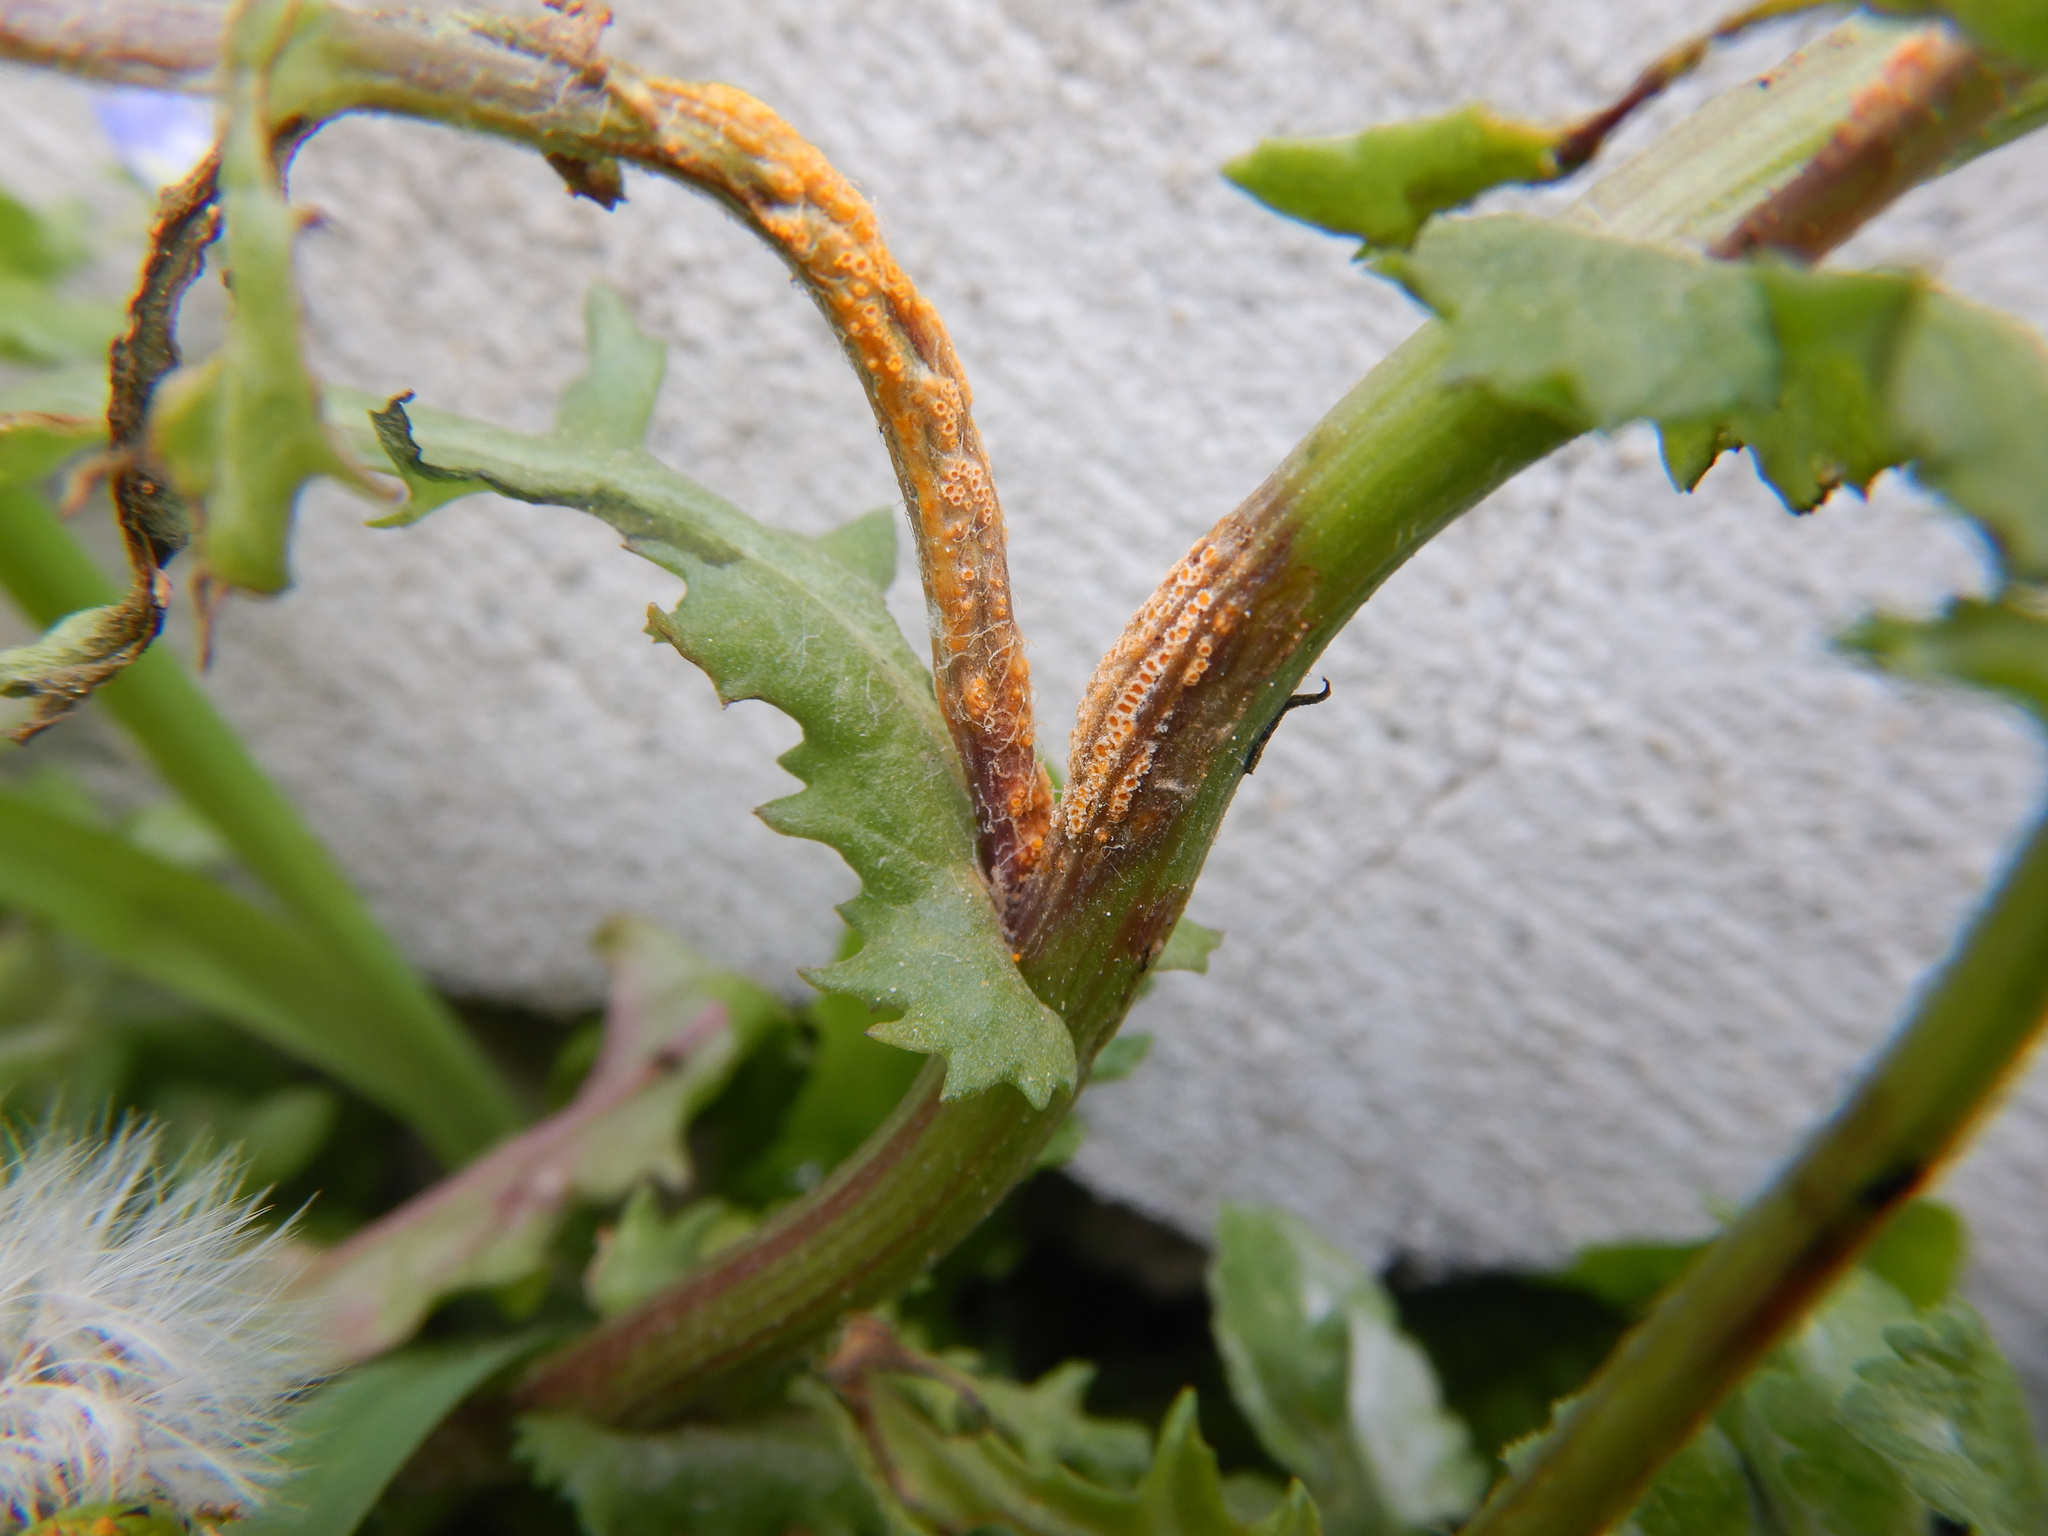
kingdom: Fungi
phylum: Basidiomycota
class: Pucciniomycetes
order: Pucciniales
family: Pucciniaceae
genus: Puccinia
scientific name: Puccinia lagenophorae
